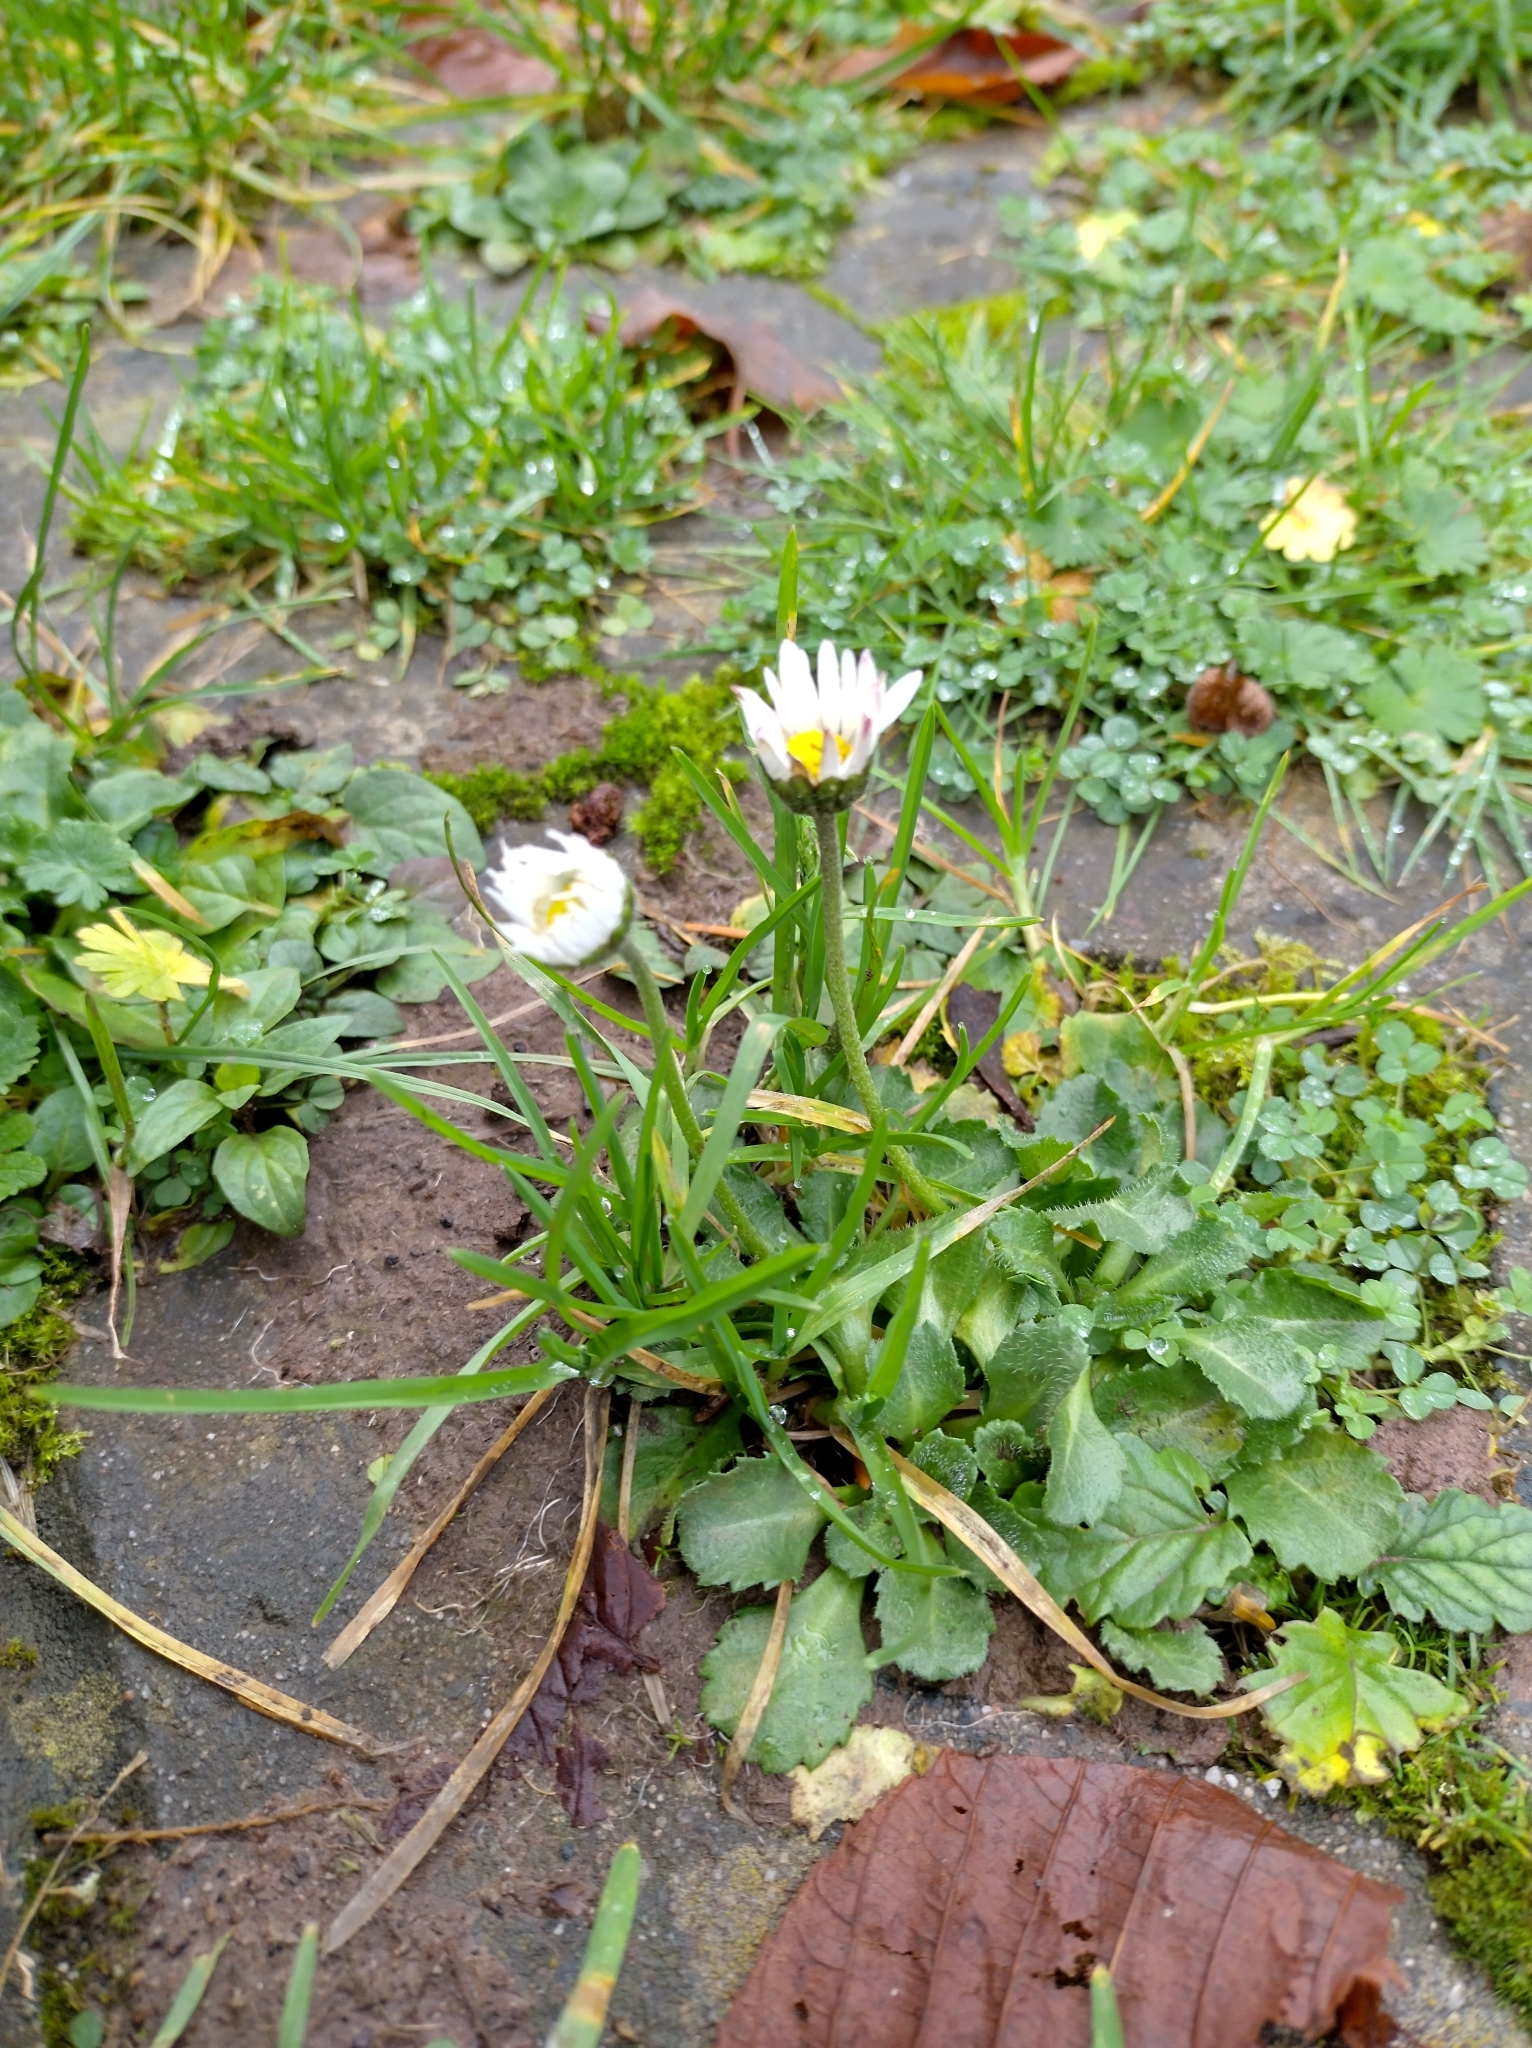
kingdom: Plantae
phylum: Tracheophyta
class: Magnoliopsida
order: Asterales
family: Asteraceae
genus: Bellis
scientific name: Bellis perennis
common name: Lawndaisy
